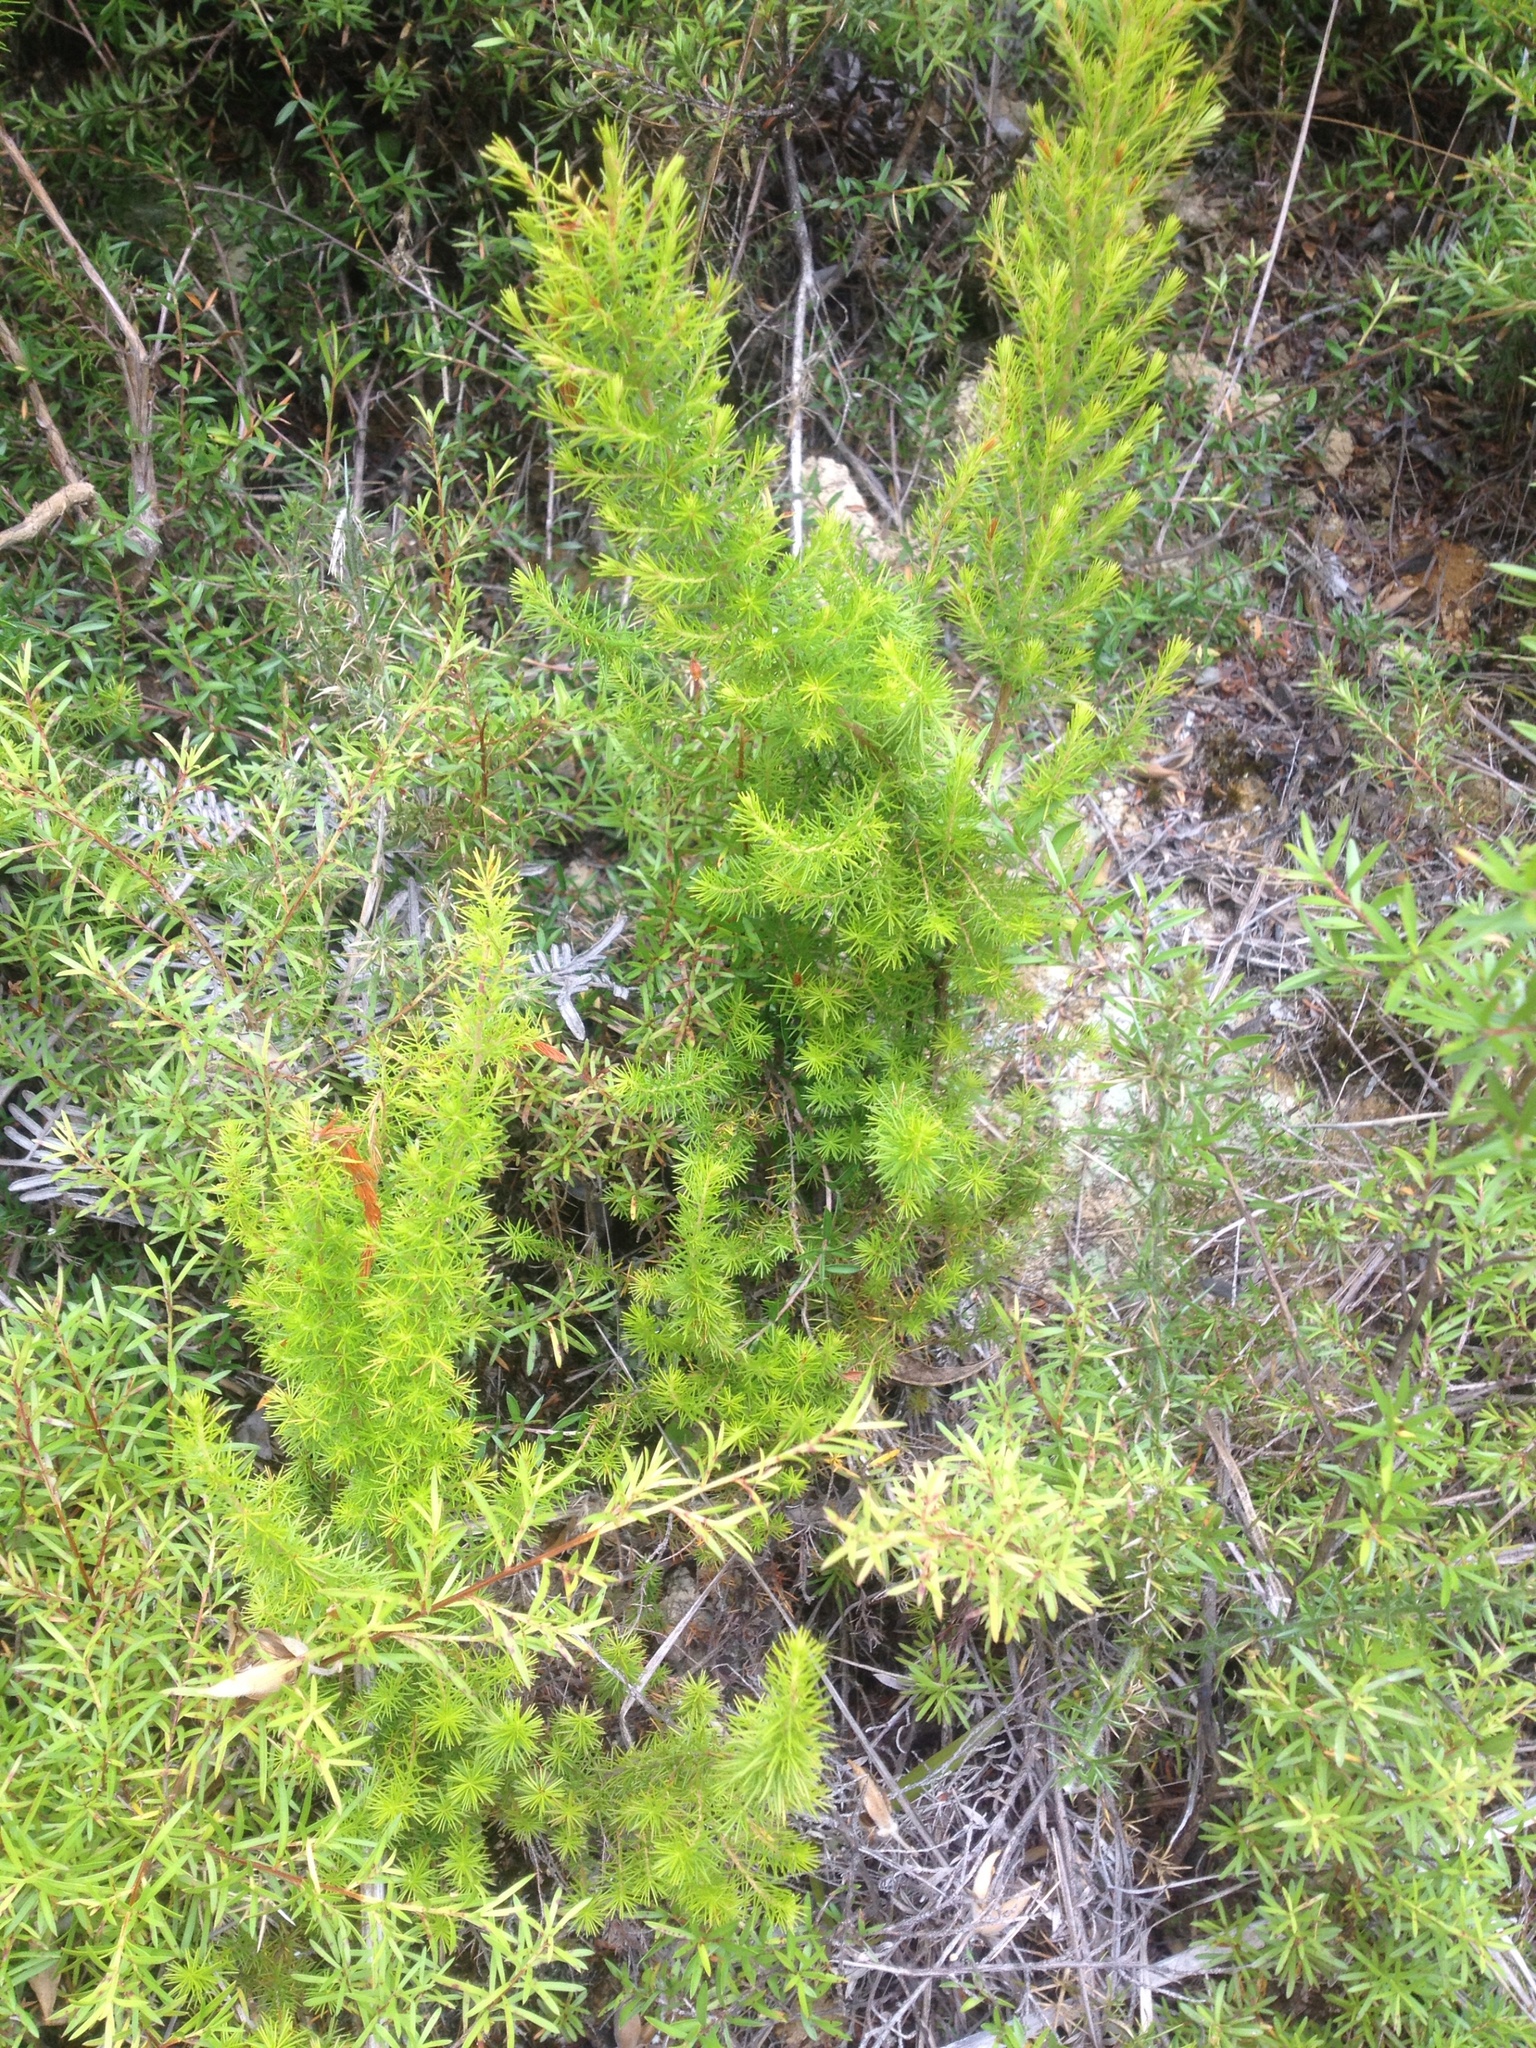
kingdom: Plantae
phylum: Tracheophyta
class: Magnoliopsida
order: Ericales
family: Ericaceae
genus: Erica
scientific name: Erica lusitanica
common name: Spanish heath
